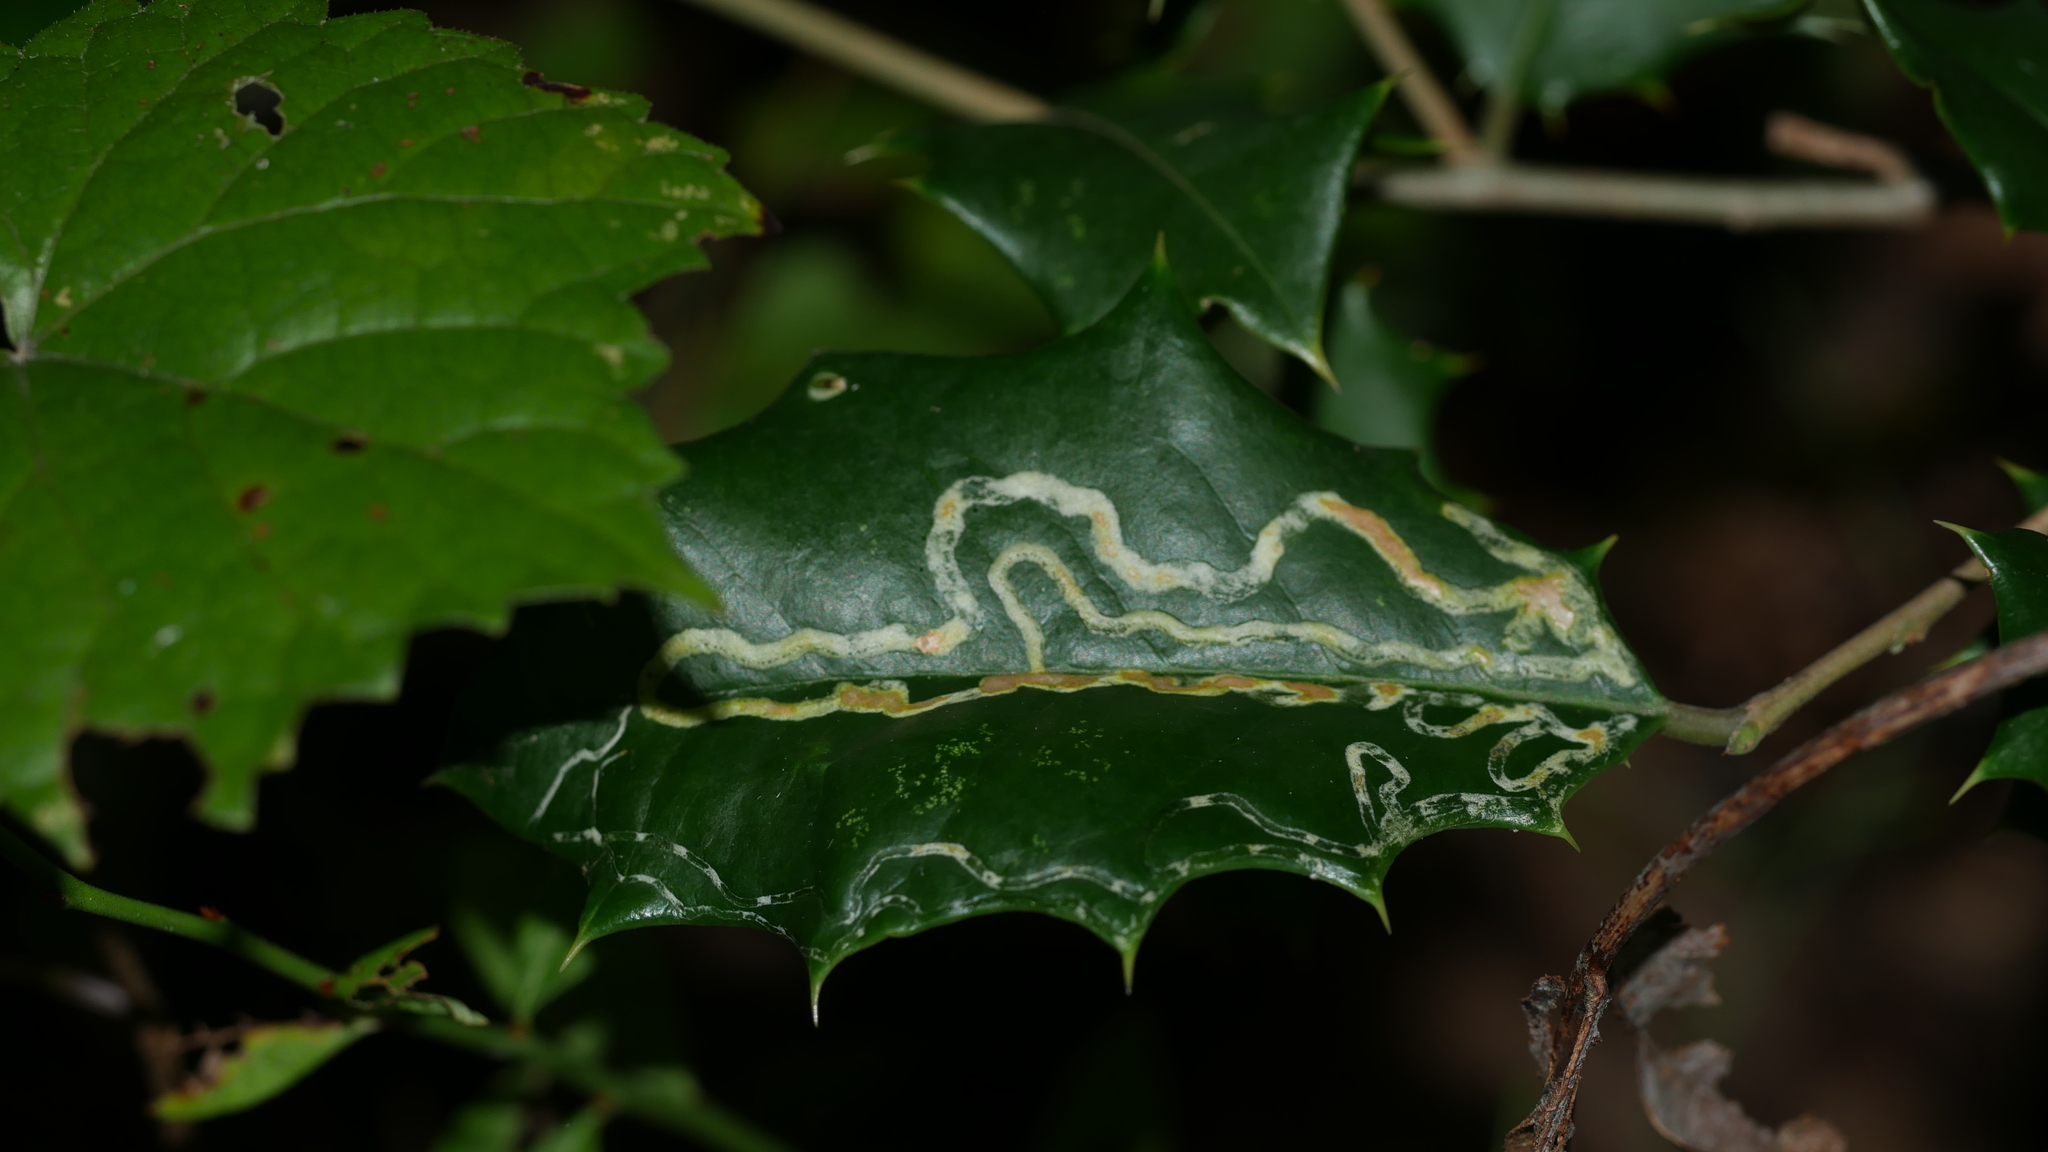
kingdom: Animalia
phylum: Arthropoda
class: Insecta
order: Diptera
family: Agromyzidae
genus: Phytomyza
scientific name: Phytomyza opacae
